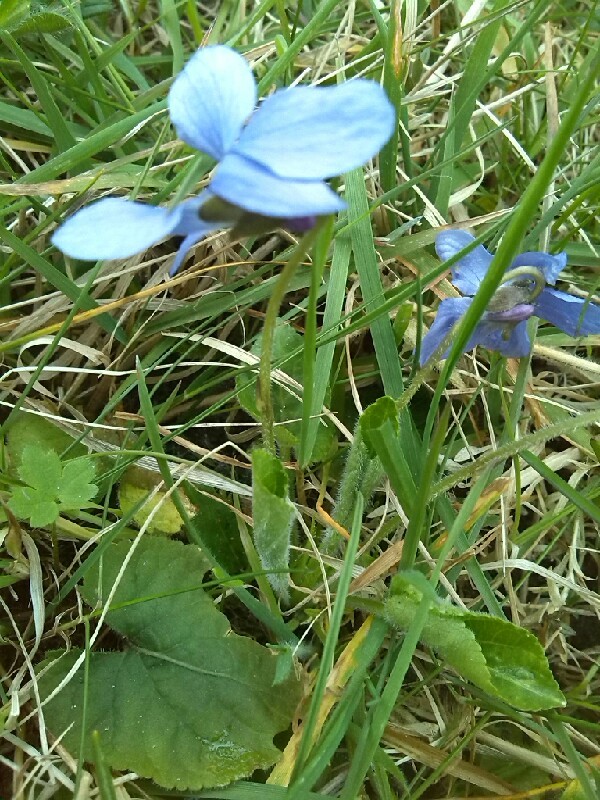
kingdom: Plantae
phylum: Tracheophyta
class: Magnoliopsida
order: Malpighiales
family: Violaceae
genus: Viola
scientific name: Viola hirta
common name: Hairy violet
